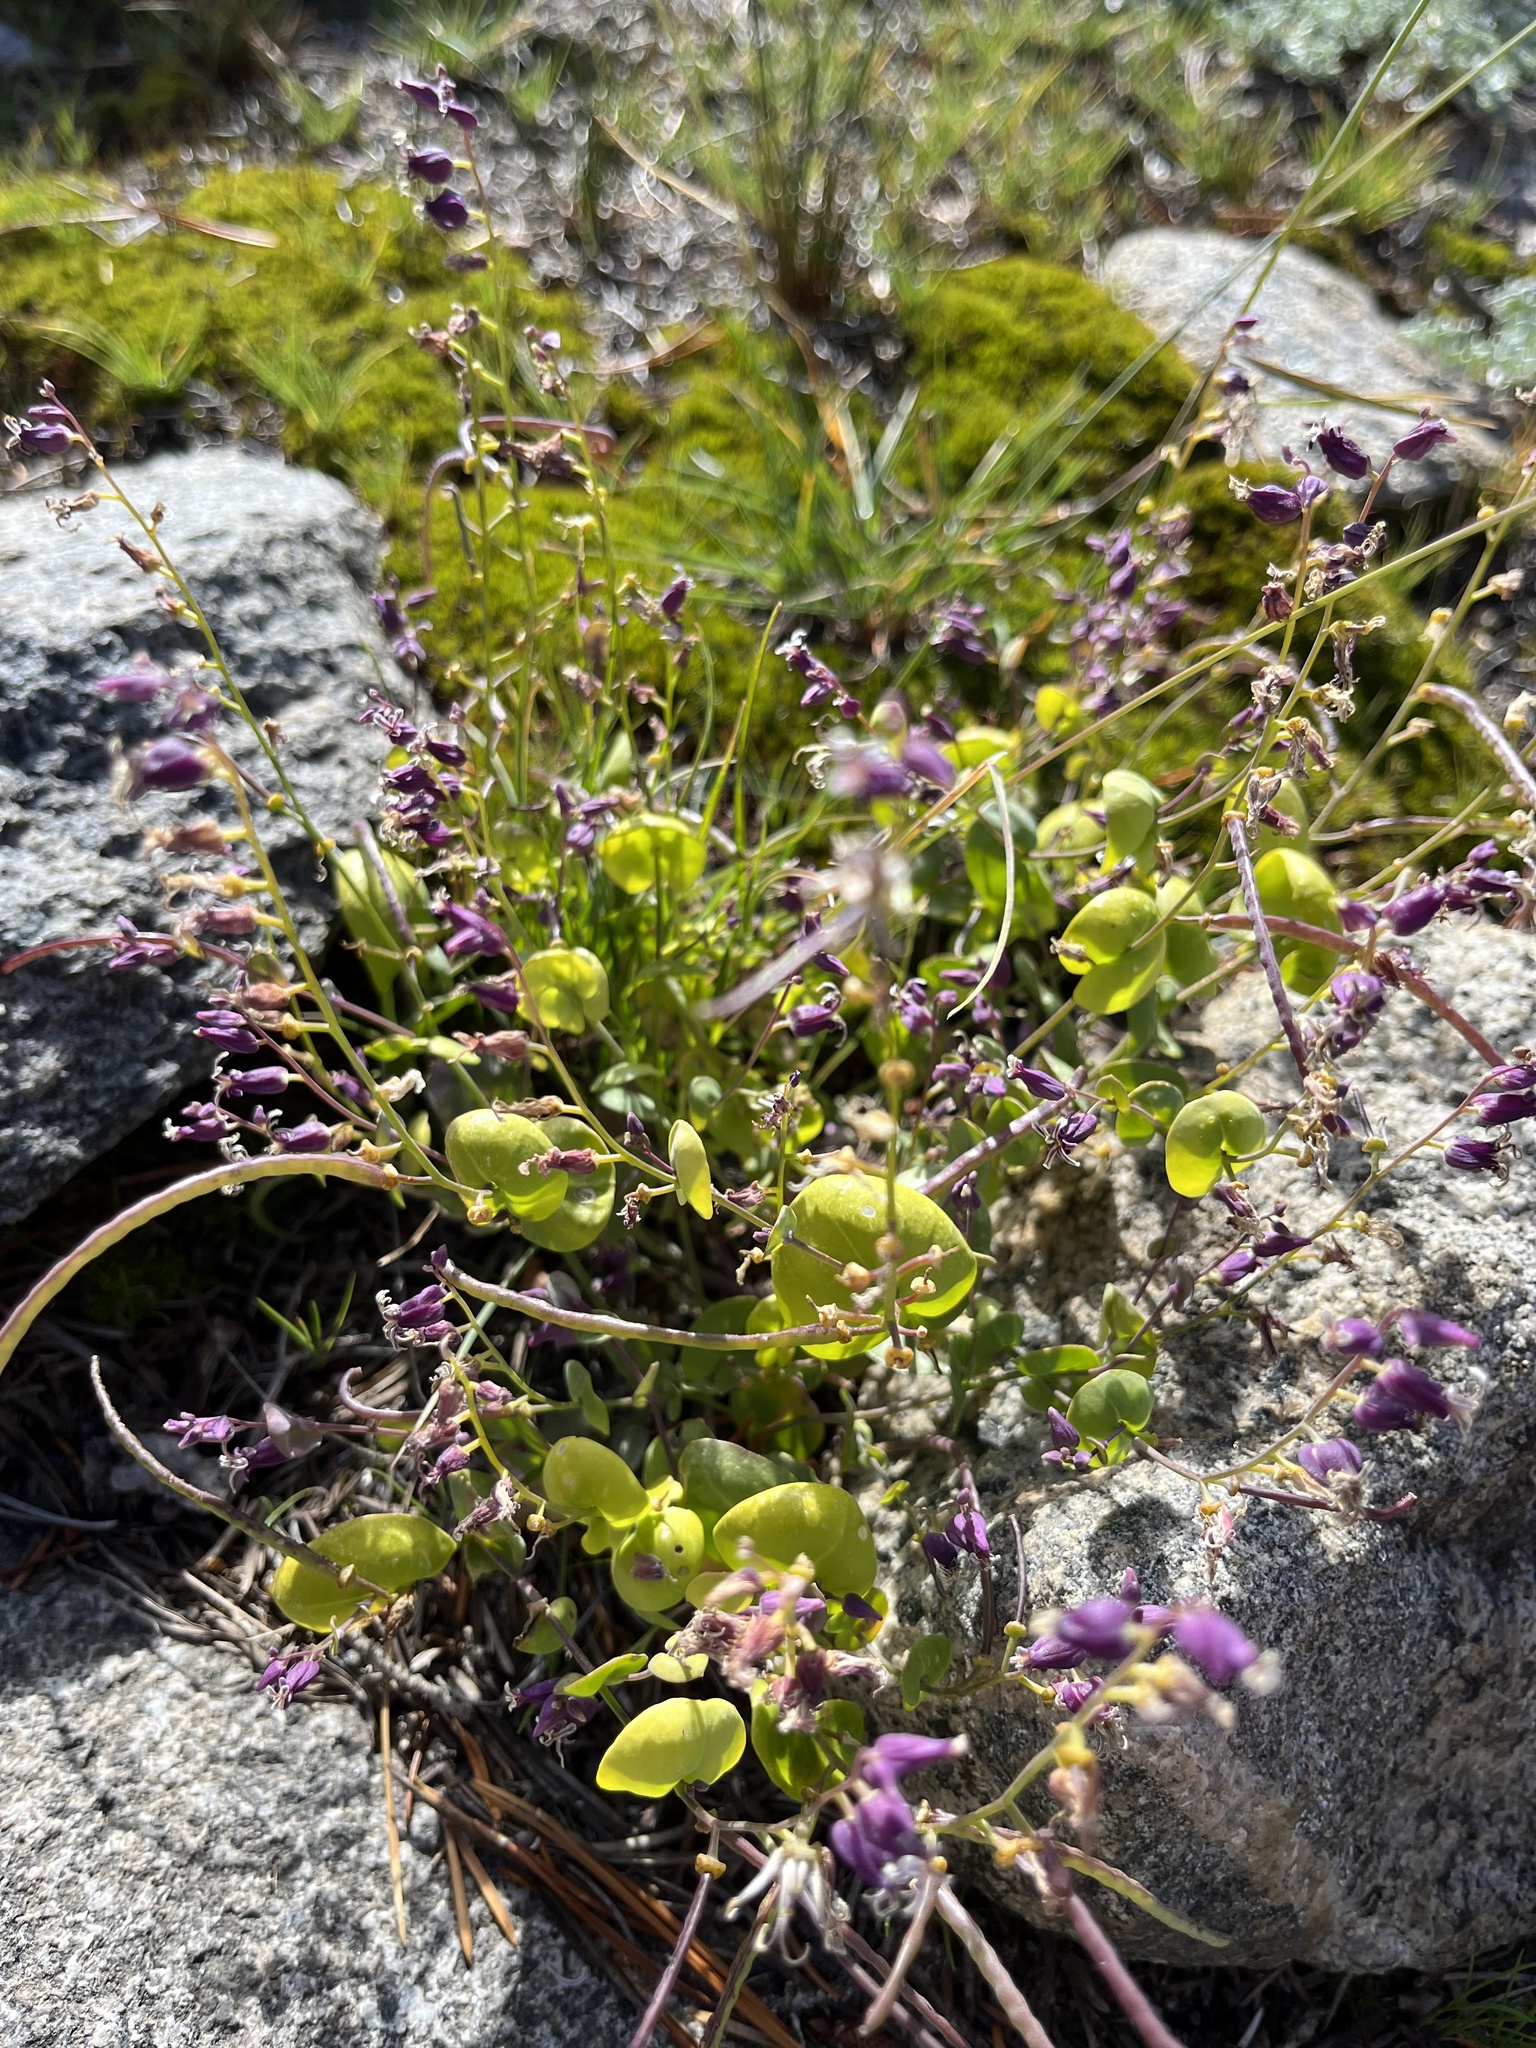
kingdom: Plantae
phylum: Tracheophyta
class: Magnoliopsida
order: Brassicales
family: Brassicaceae
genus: Streptanthus
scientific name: Streptanthus tortuosus
